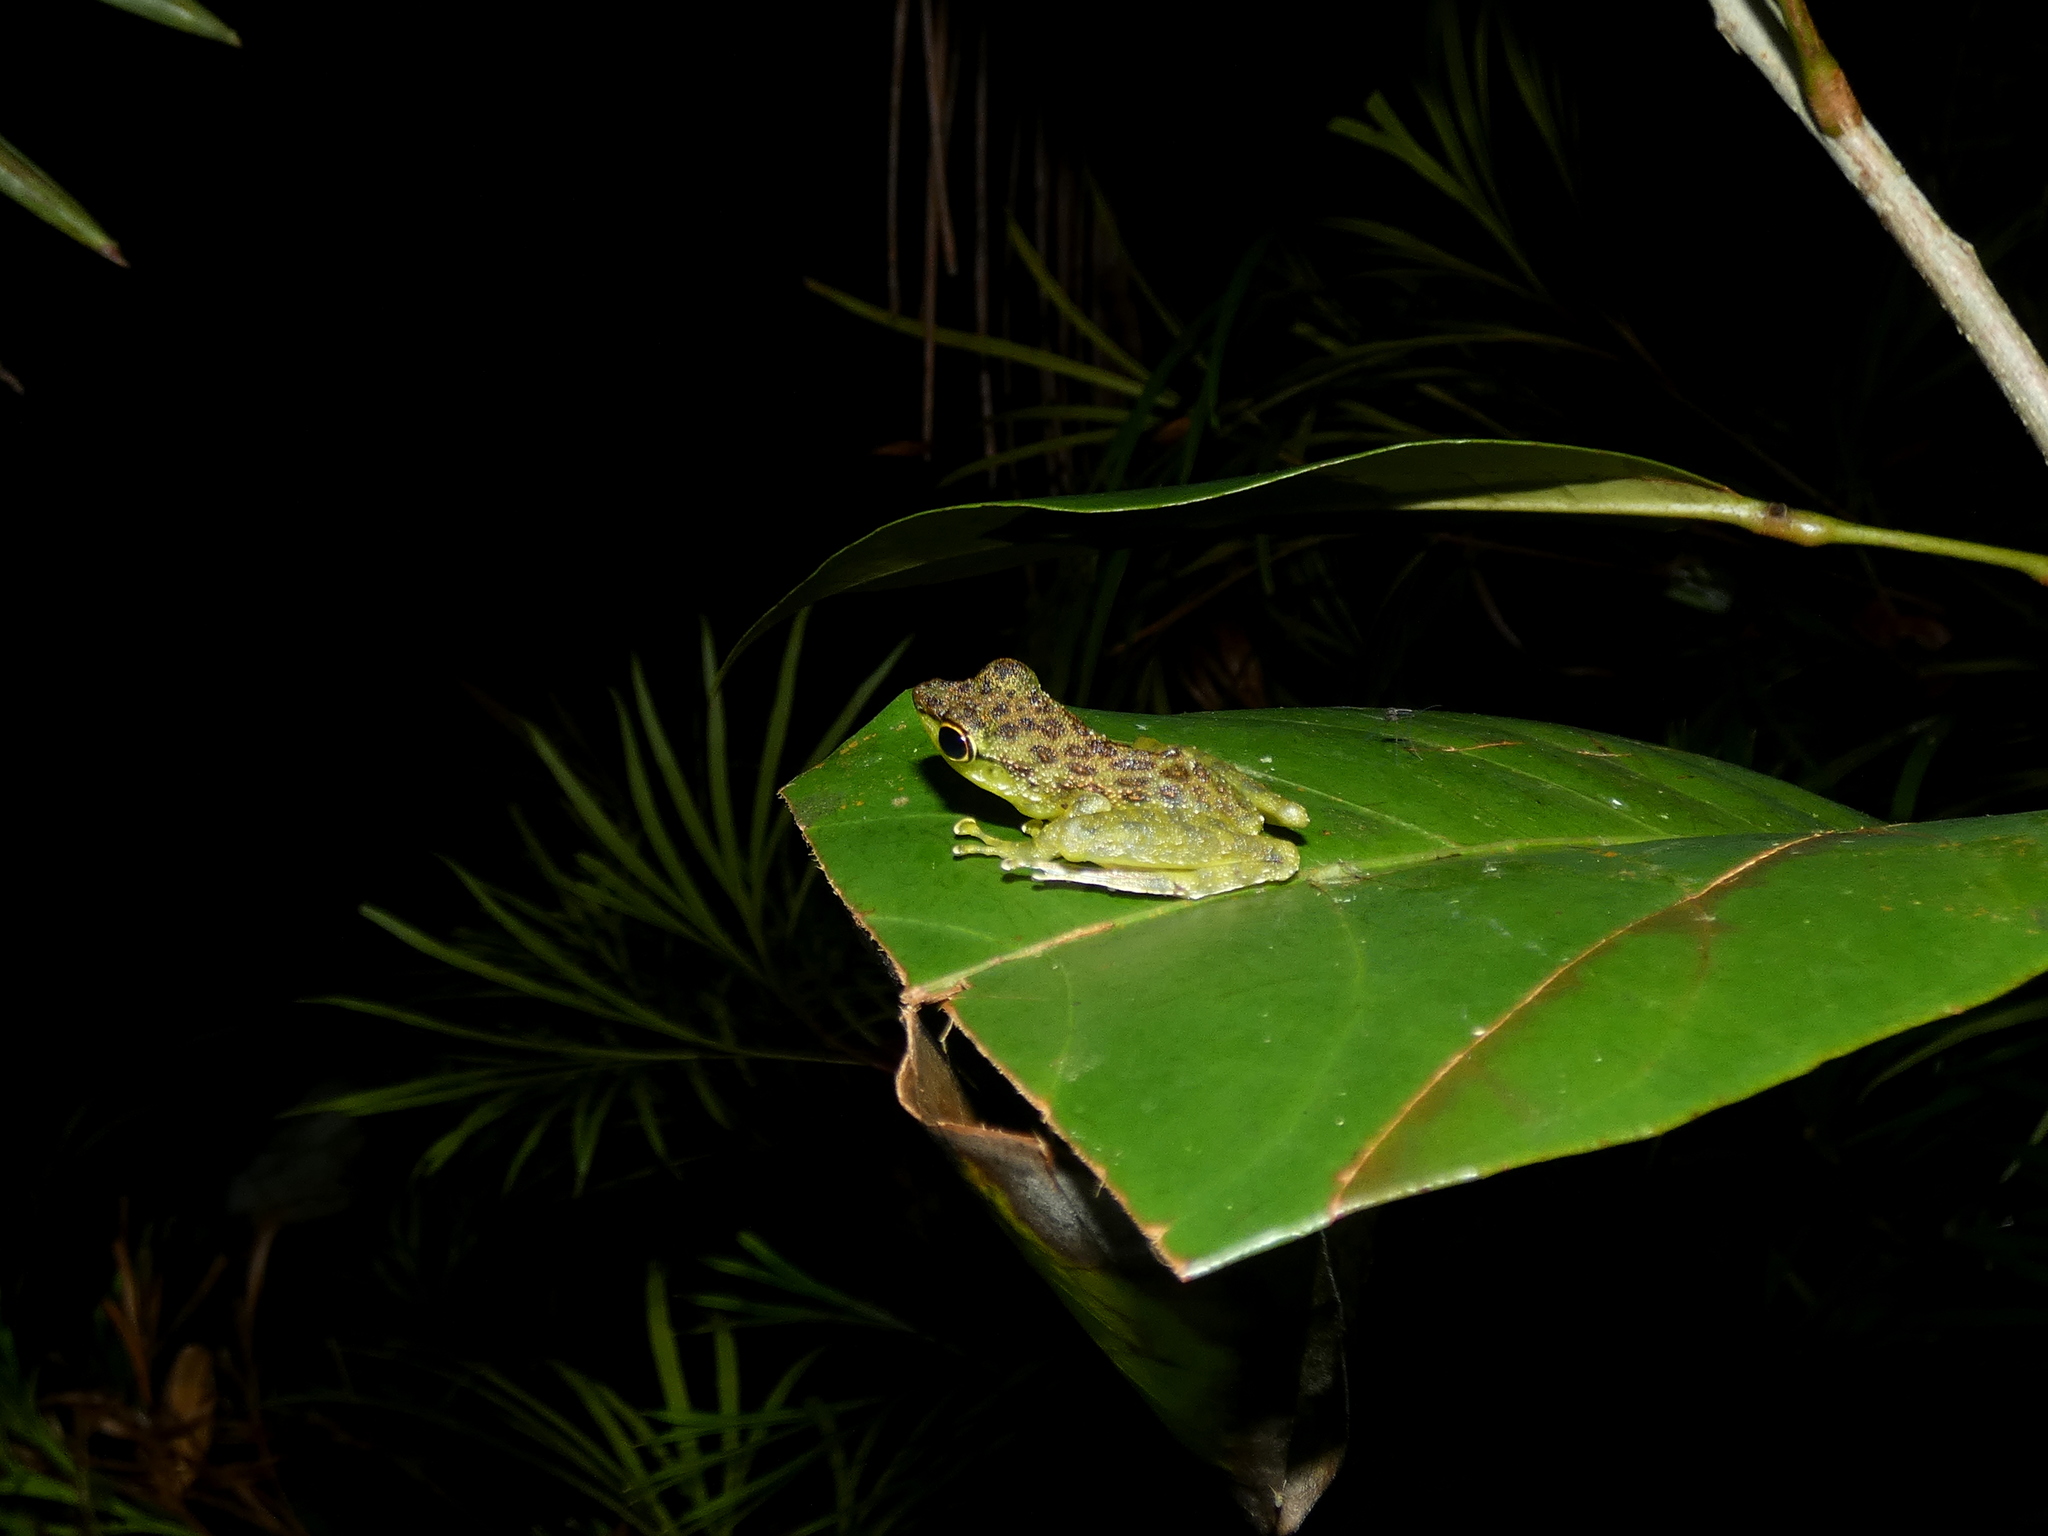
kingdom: Animalia
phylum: Chordata
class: Amphibia
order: Anura
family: Ranidae
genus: Staurois
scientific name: Staurois guttatus
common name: Black-spotted rock frog
